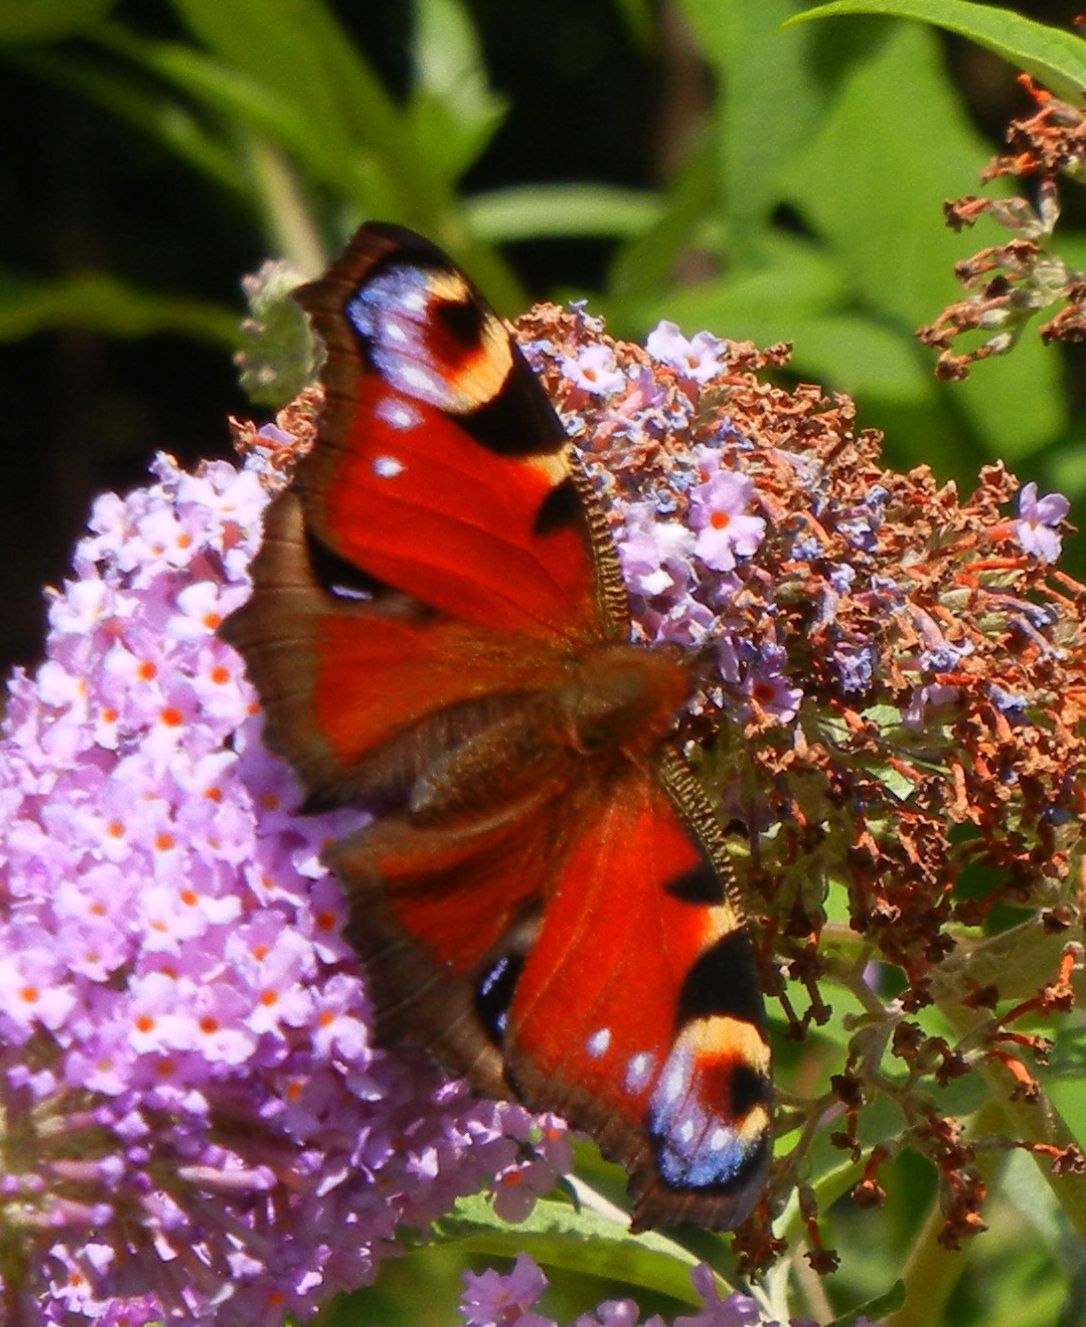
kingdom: Animalia
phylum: Arthropoda
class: Insecta
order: Lepidoptera
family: Nymphalidae
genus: Aglais
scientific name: Aglais io
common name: Peacock
